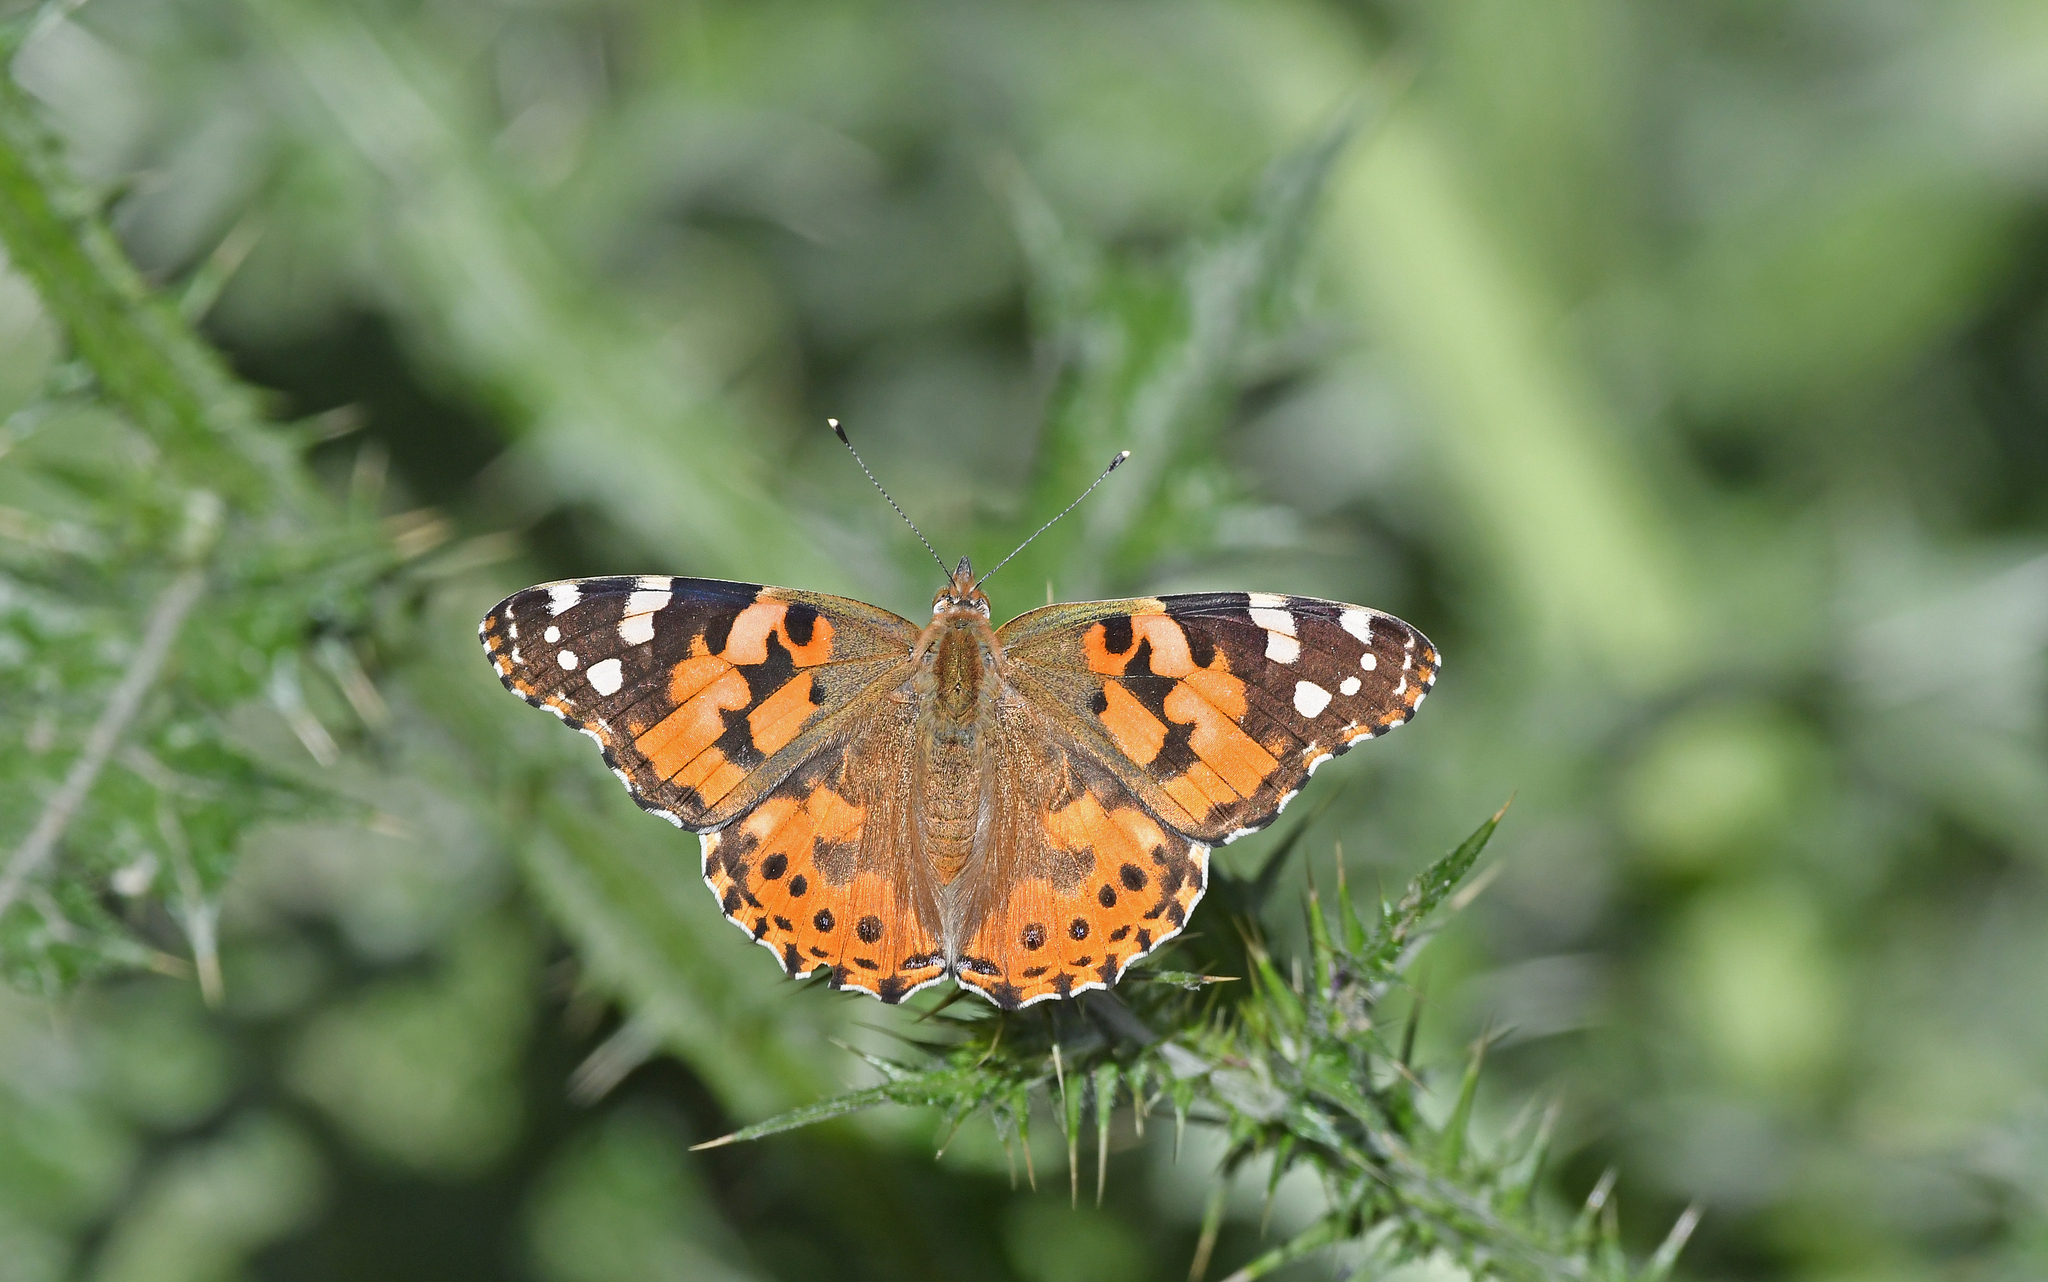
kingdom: Animalia
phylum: Arthropoda
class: Insecta
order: Lepidoptera
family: Nymphalidae
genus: Vanessa
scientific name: Vanessa cardui
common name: Painted lady
